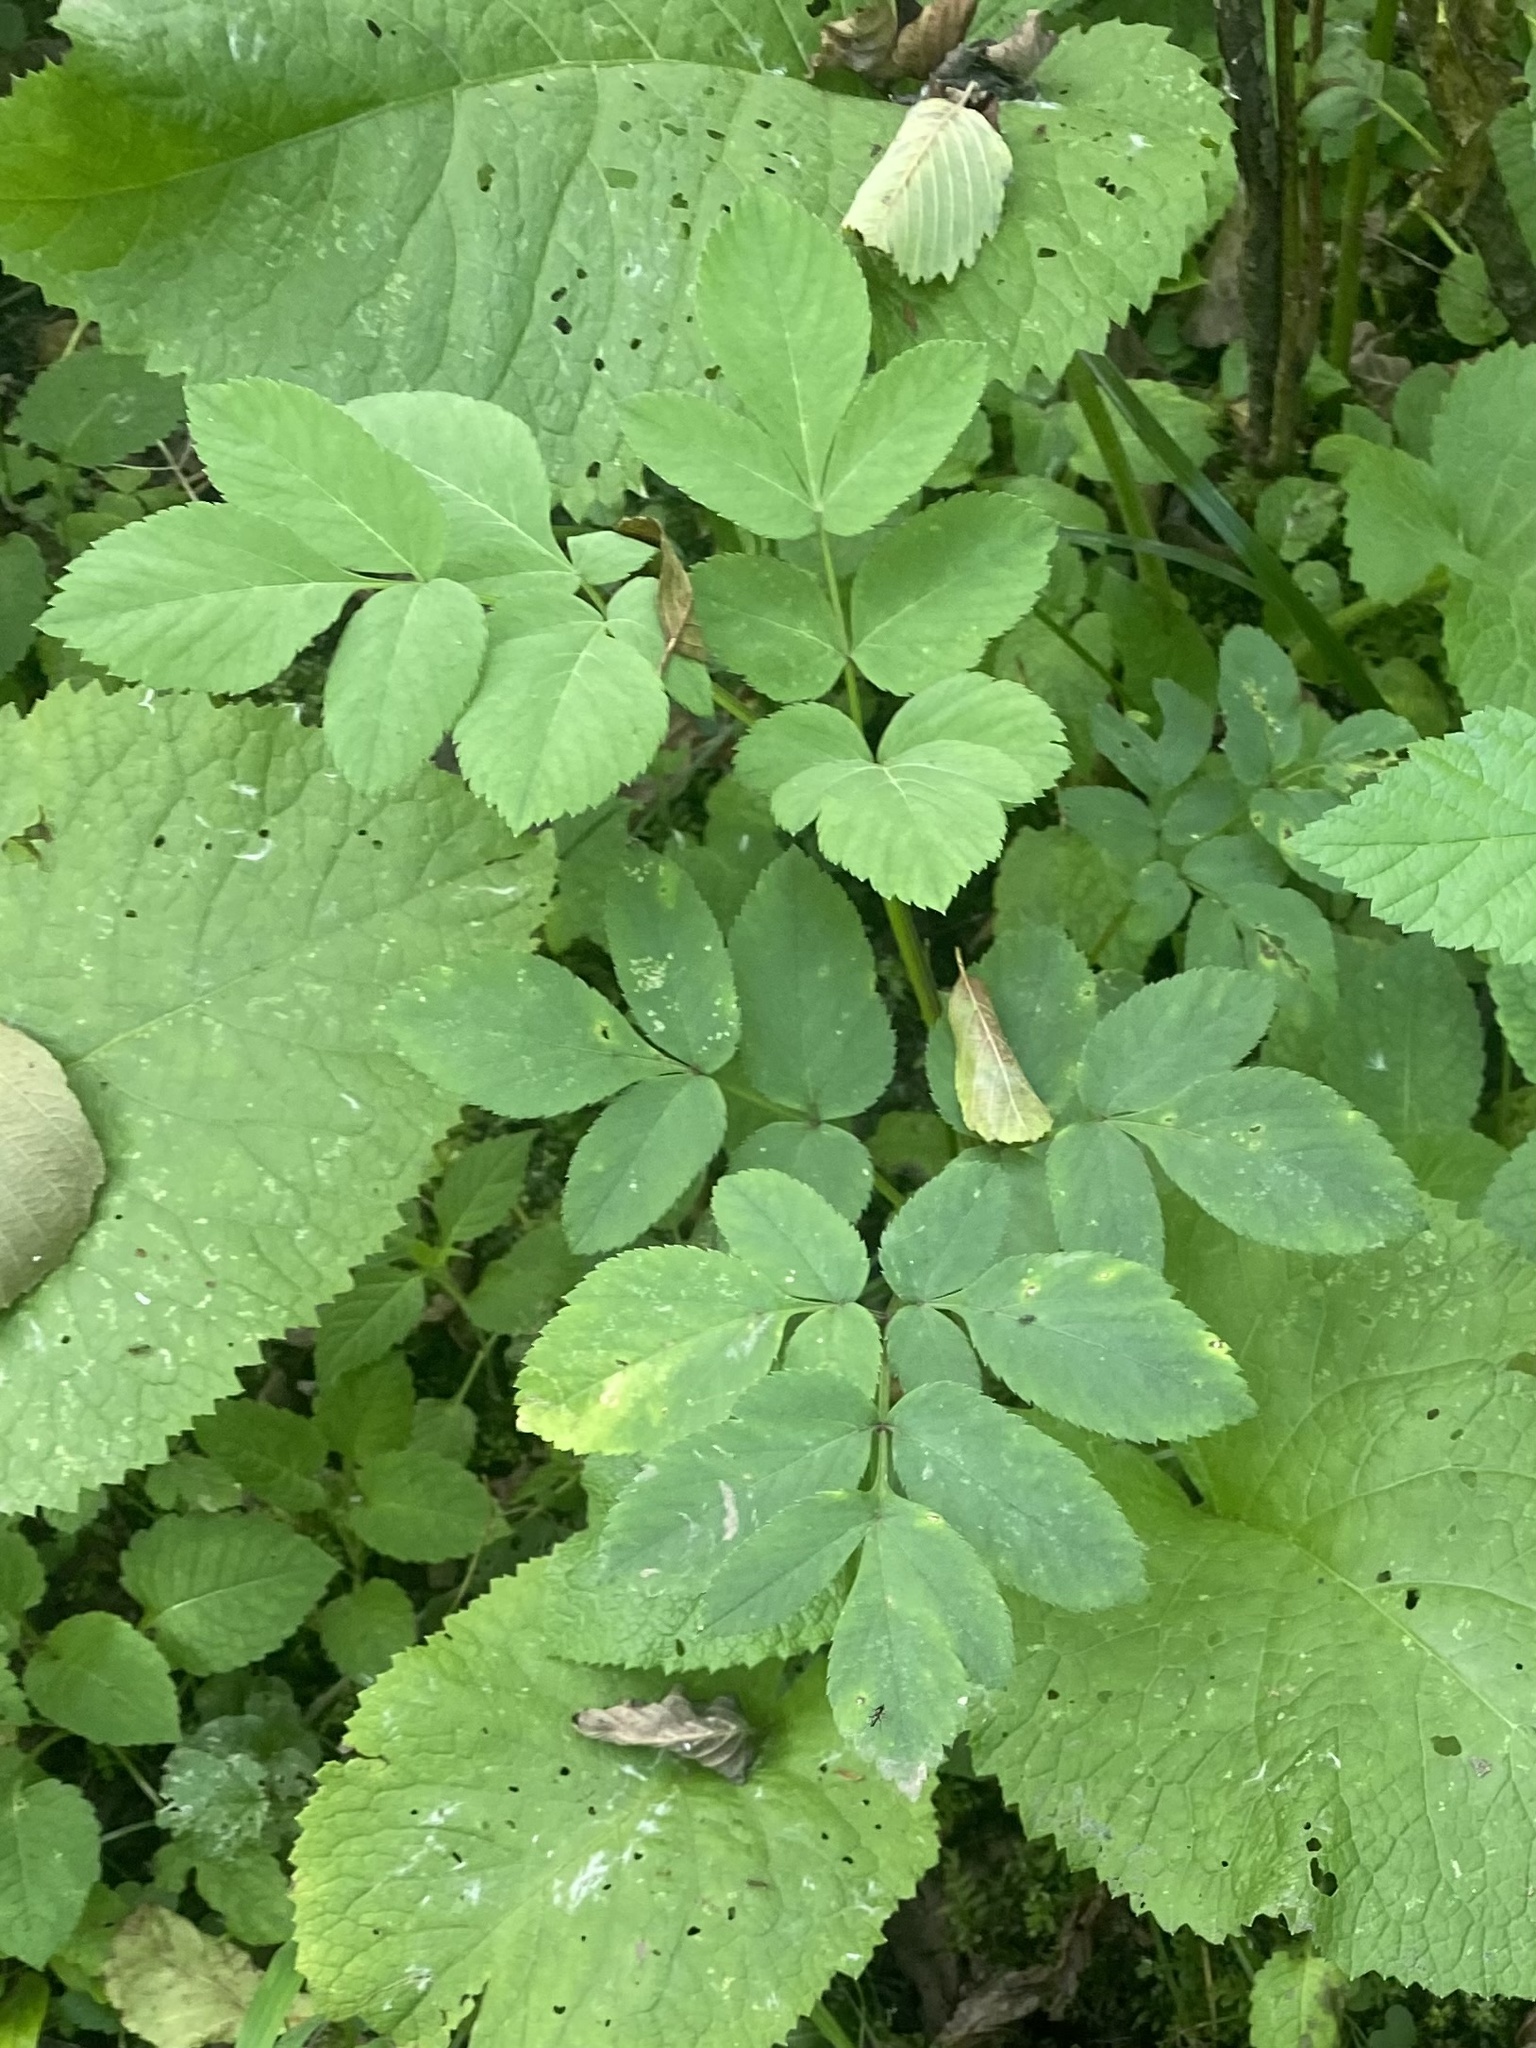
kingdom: Plantae
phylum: Tracheophyta
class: Magnoliopsida
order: Apiales
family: Apiaceae
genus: Aegopodium
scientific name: Aegopodium podagraria
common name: Ground-elder
